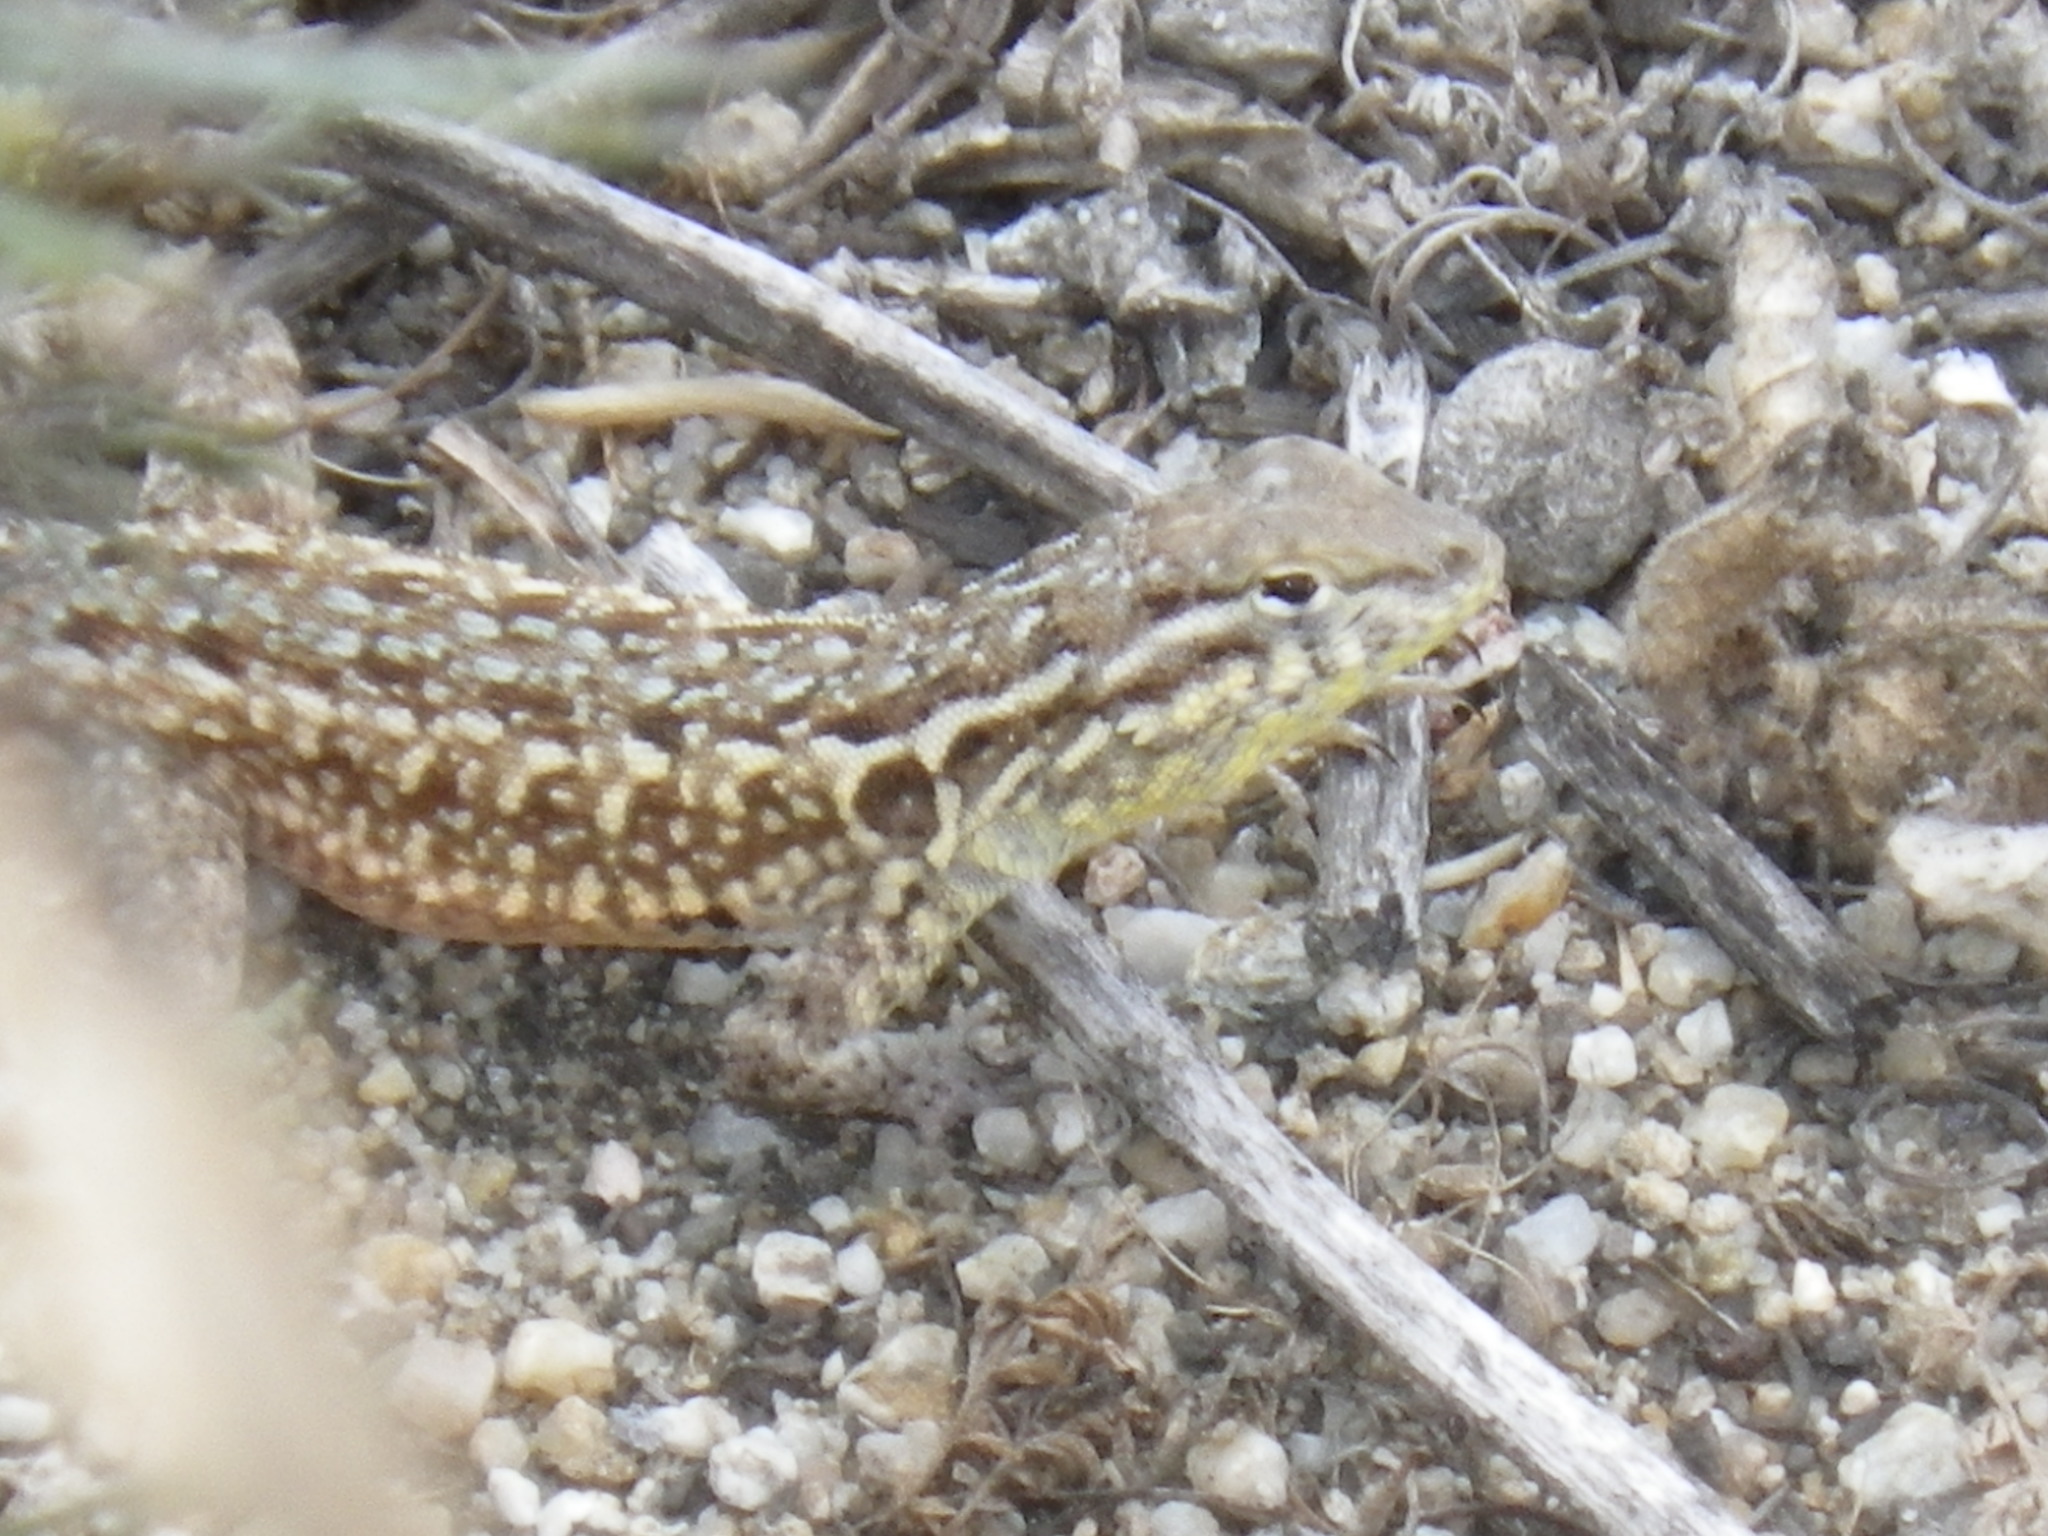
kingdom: Animalia
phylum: Chordata
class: Squamata
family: Phrynosomatidae
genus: Uta
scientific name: Uta stansburiana
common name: Side-blotched lizard
